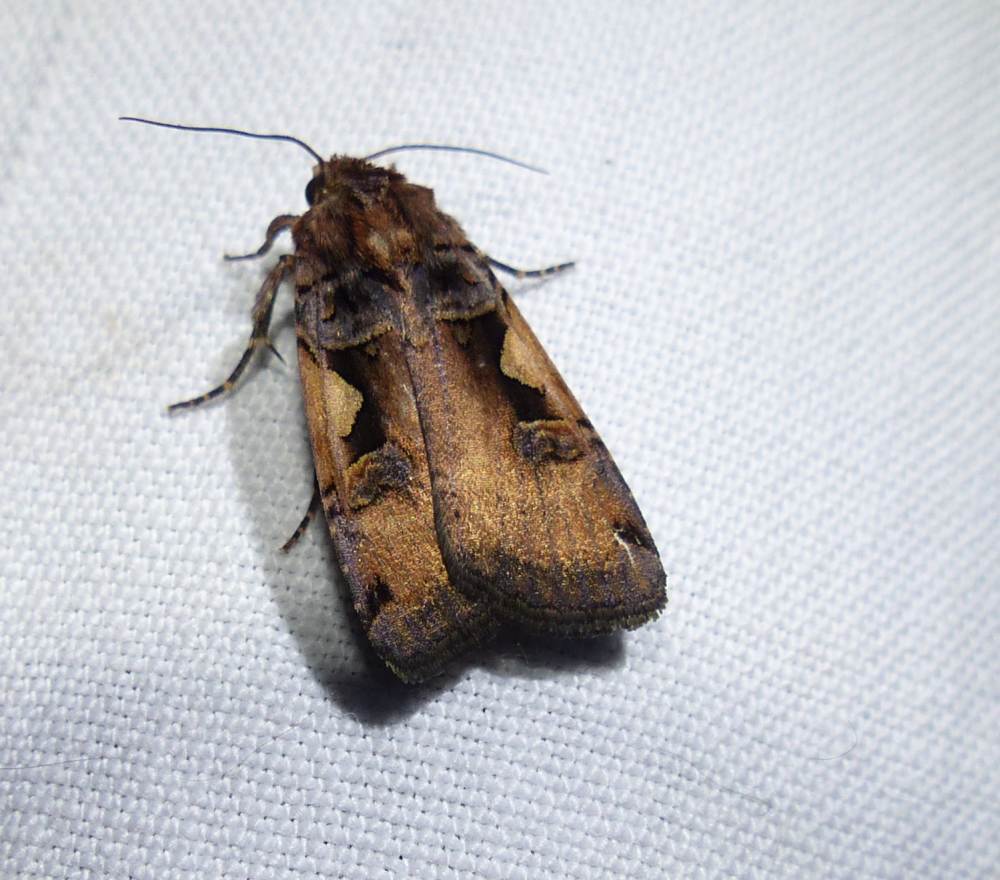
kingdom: Animalia
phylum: Arthropoda
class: Insecta
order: Lepidoptera
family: Noctuidae
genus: Xestia
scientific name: Xestia
